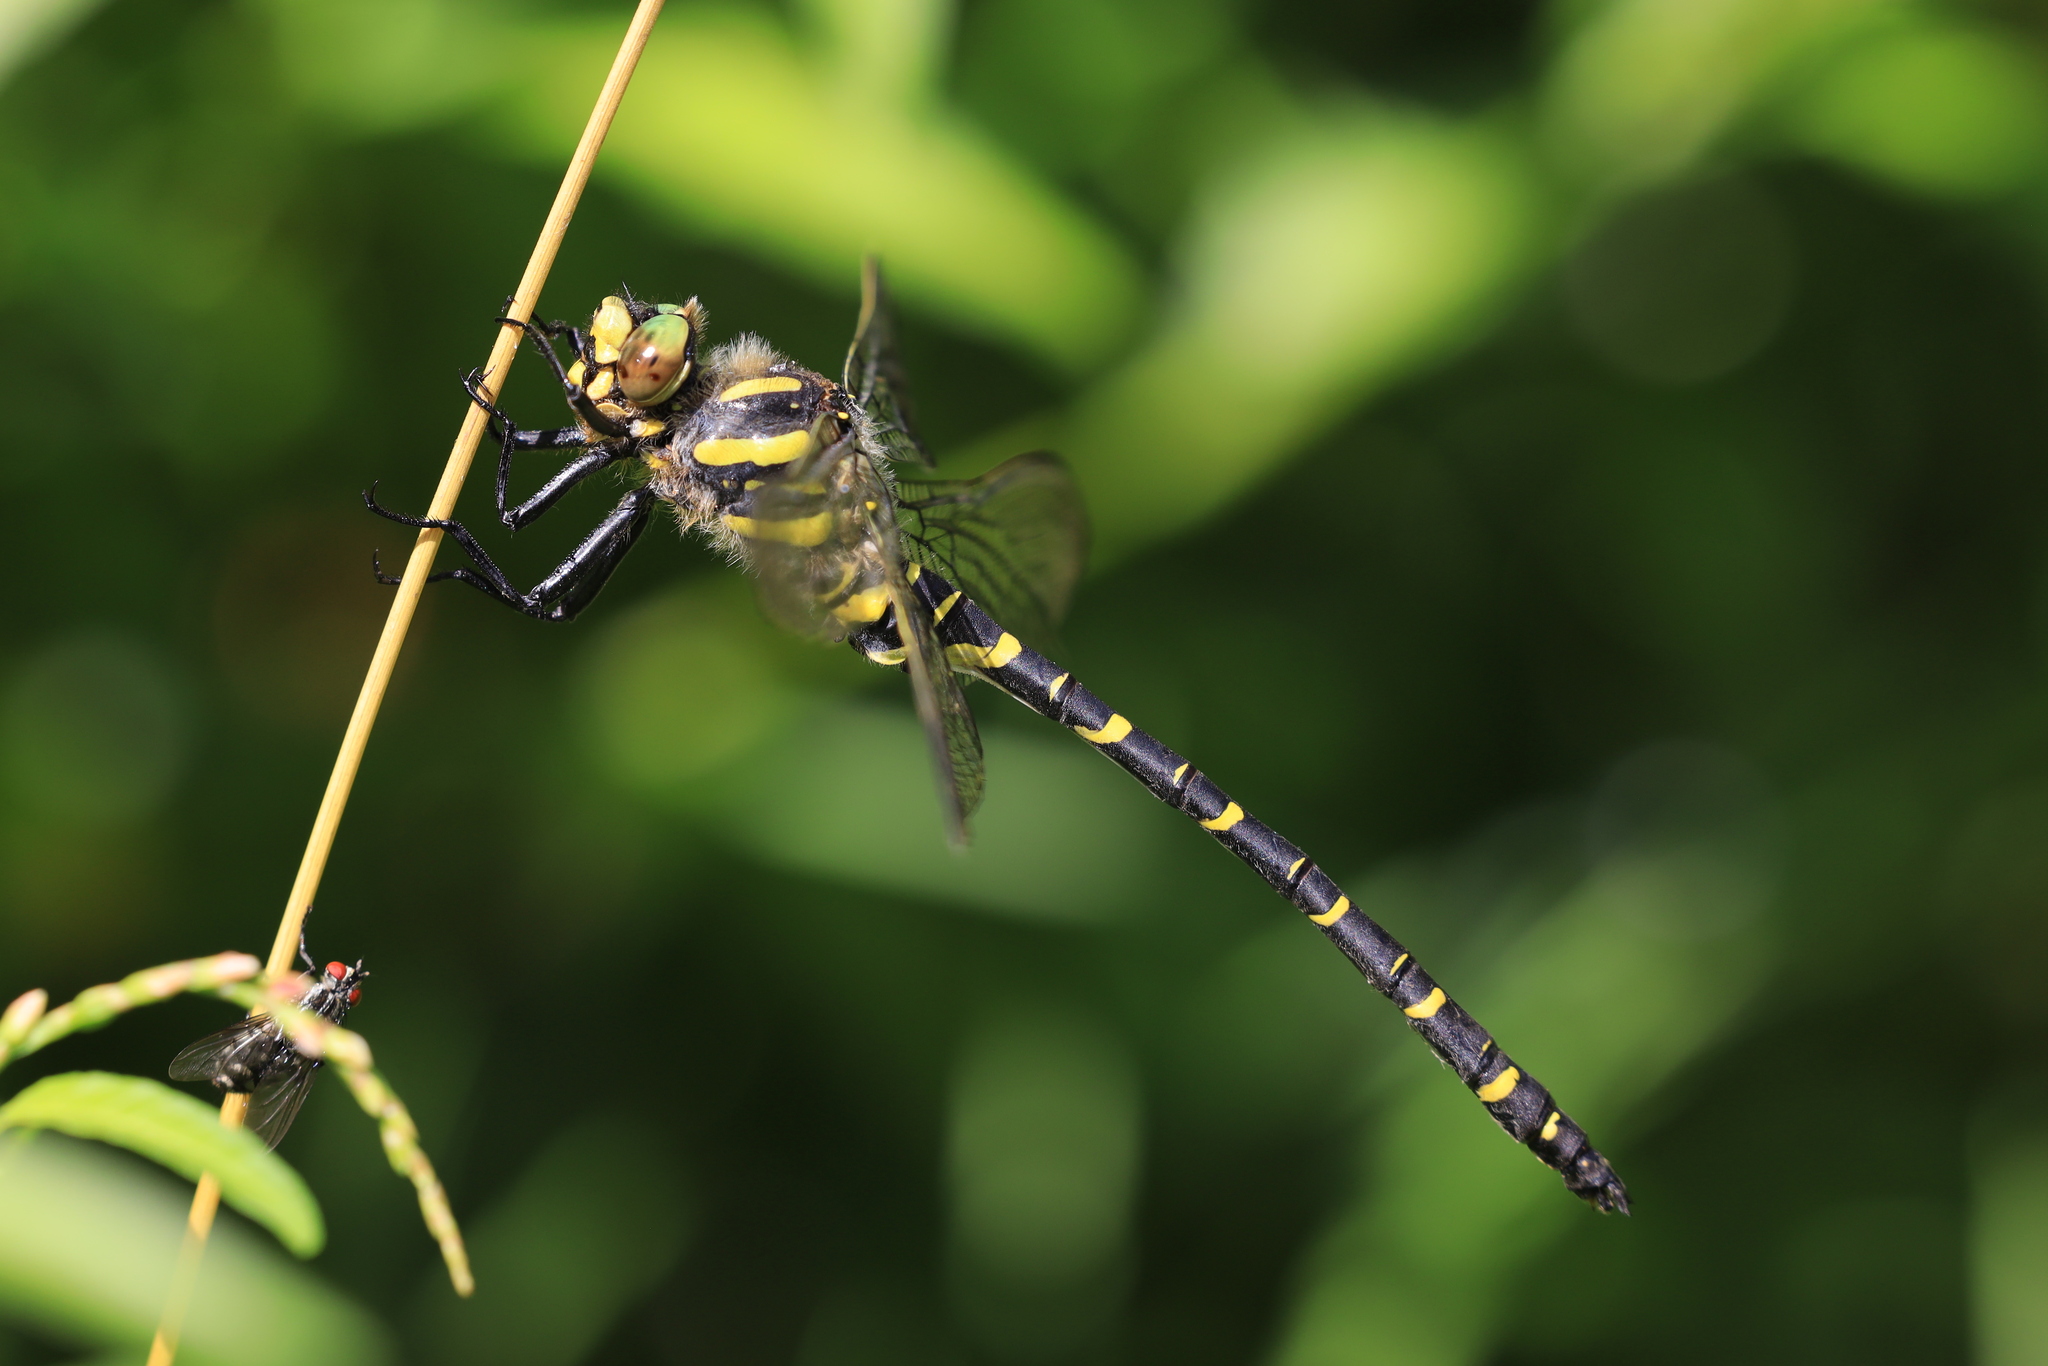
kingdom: Animalia
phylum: Arthropoda
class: Insecta
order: Odonata
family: Cordulegastridae
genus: Cordulegaster
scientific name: Cordulegaster boltonii
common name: Golden-ringed dragonfly
